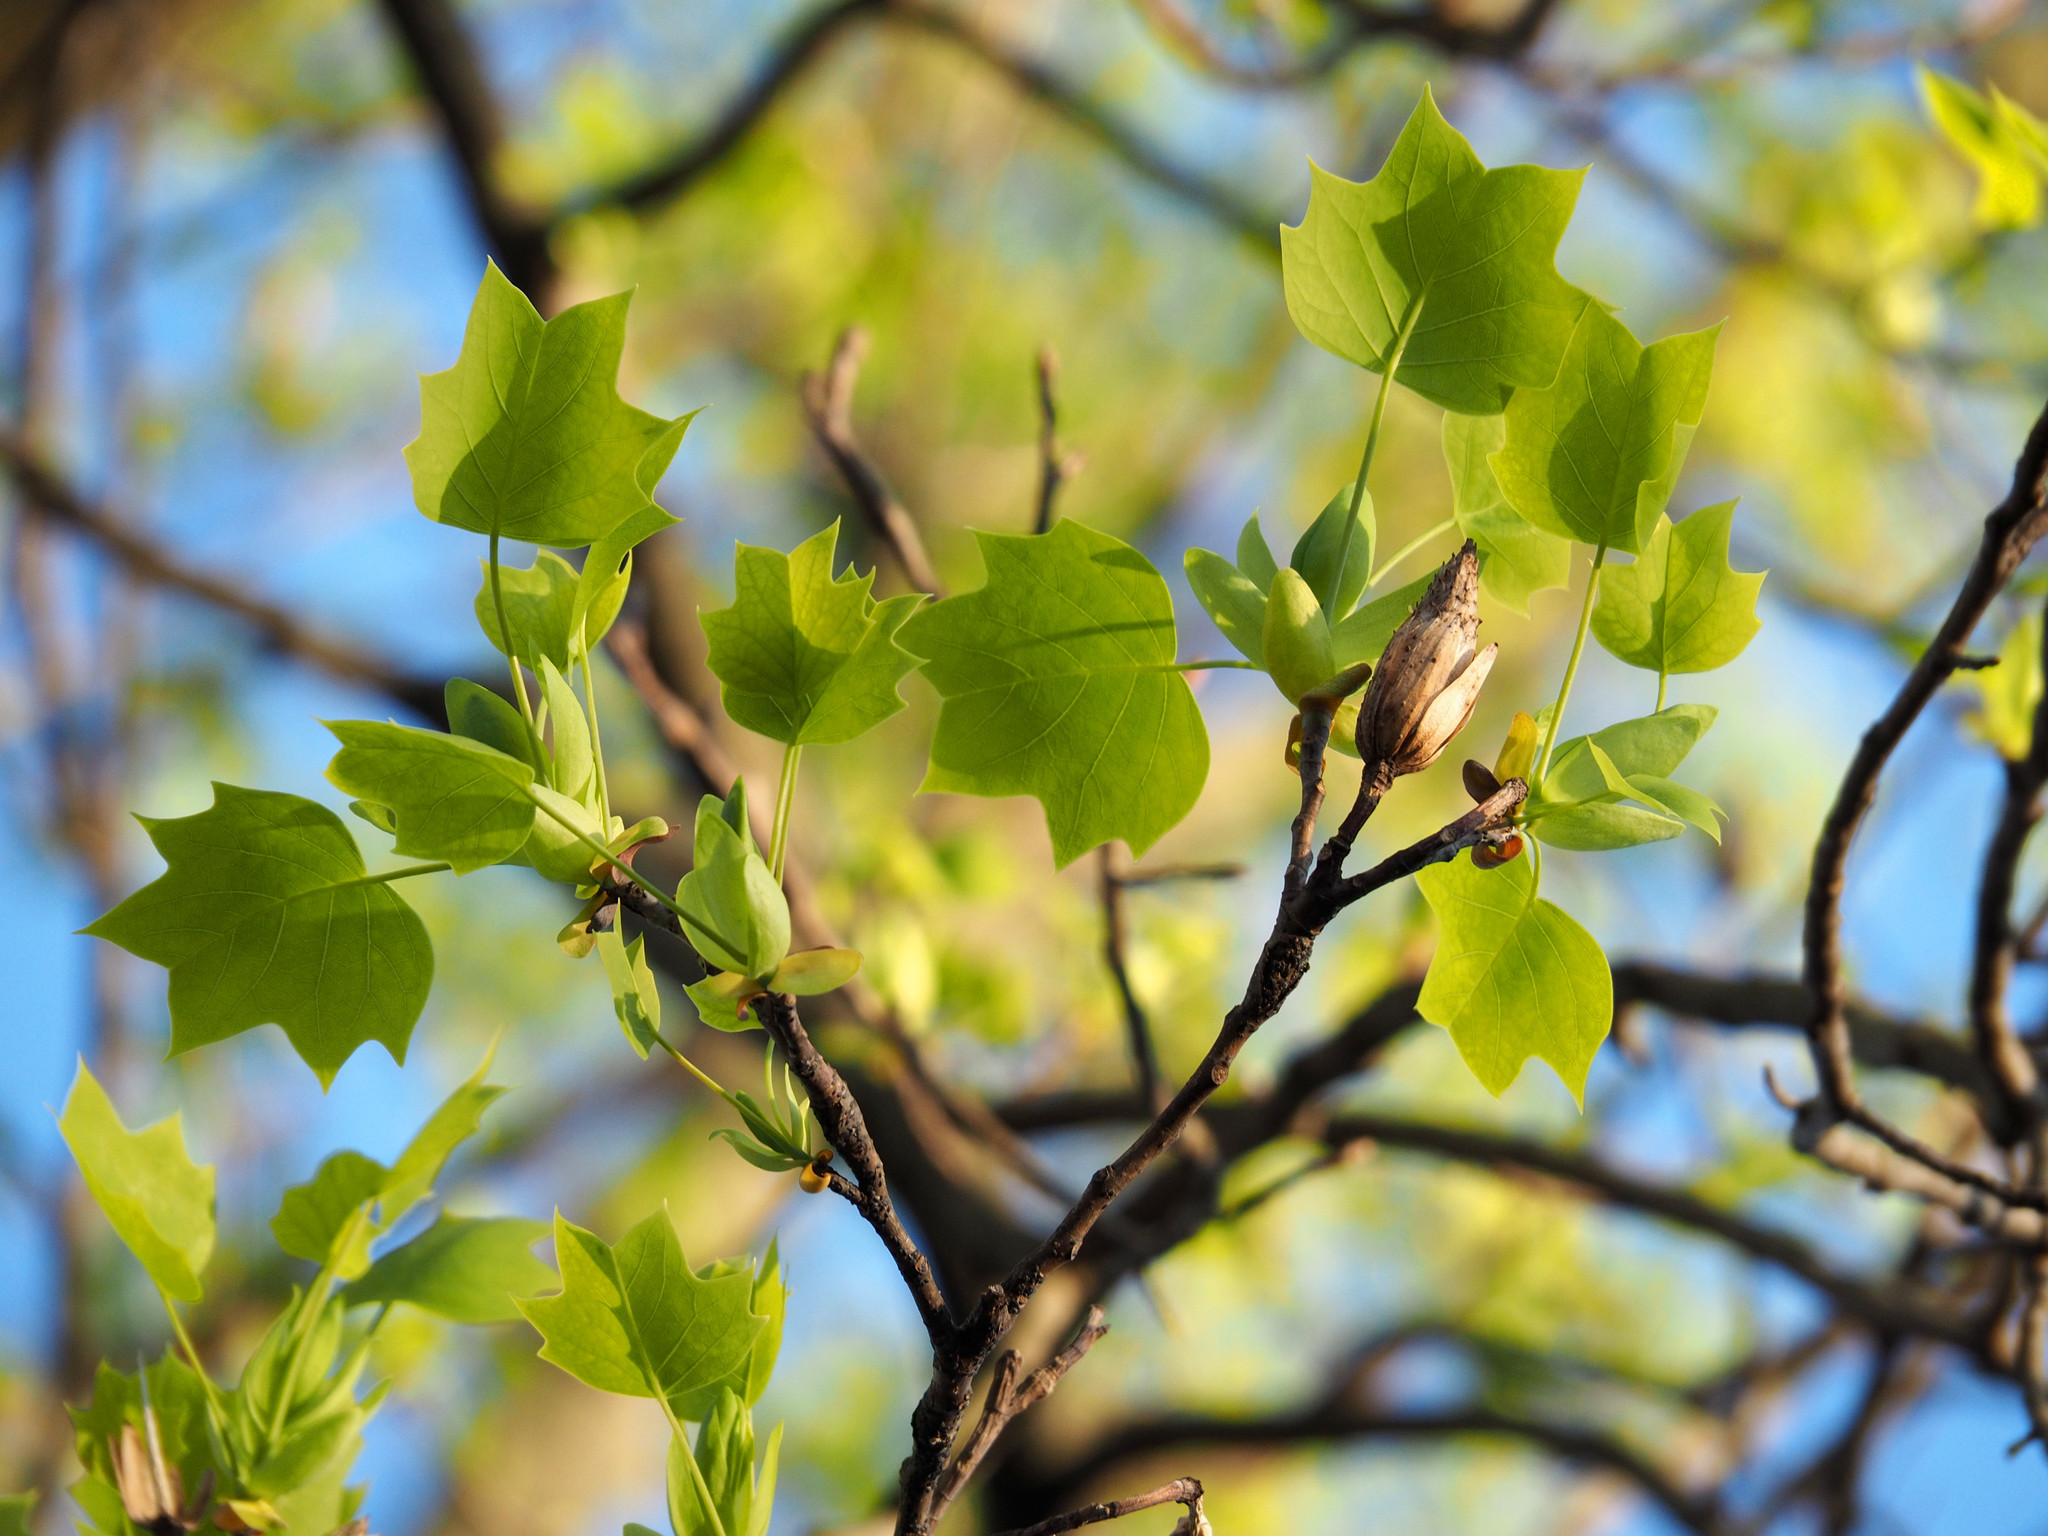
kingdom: Plantae
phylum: Tracheophyta
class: Magnoliopsida
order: Magnoliales
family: Magnoliaceae
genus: Liriodendron
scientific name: Liriodendron tulipifera
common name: Tulip tree
